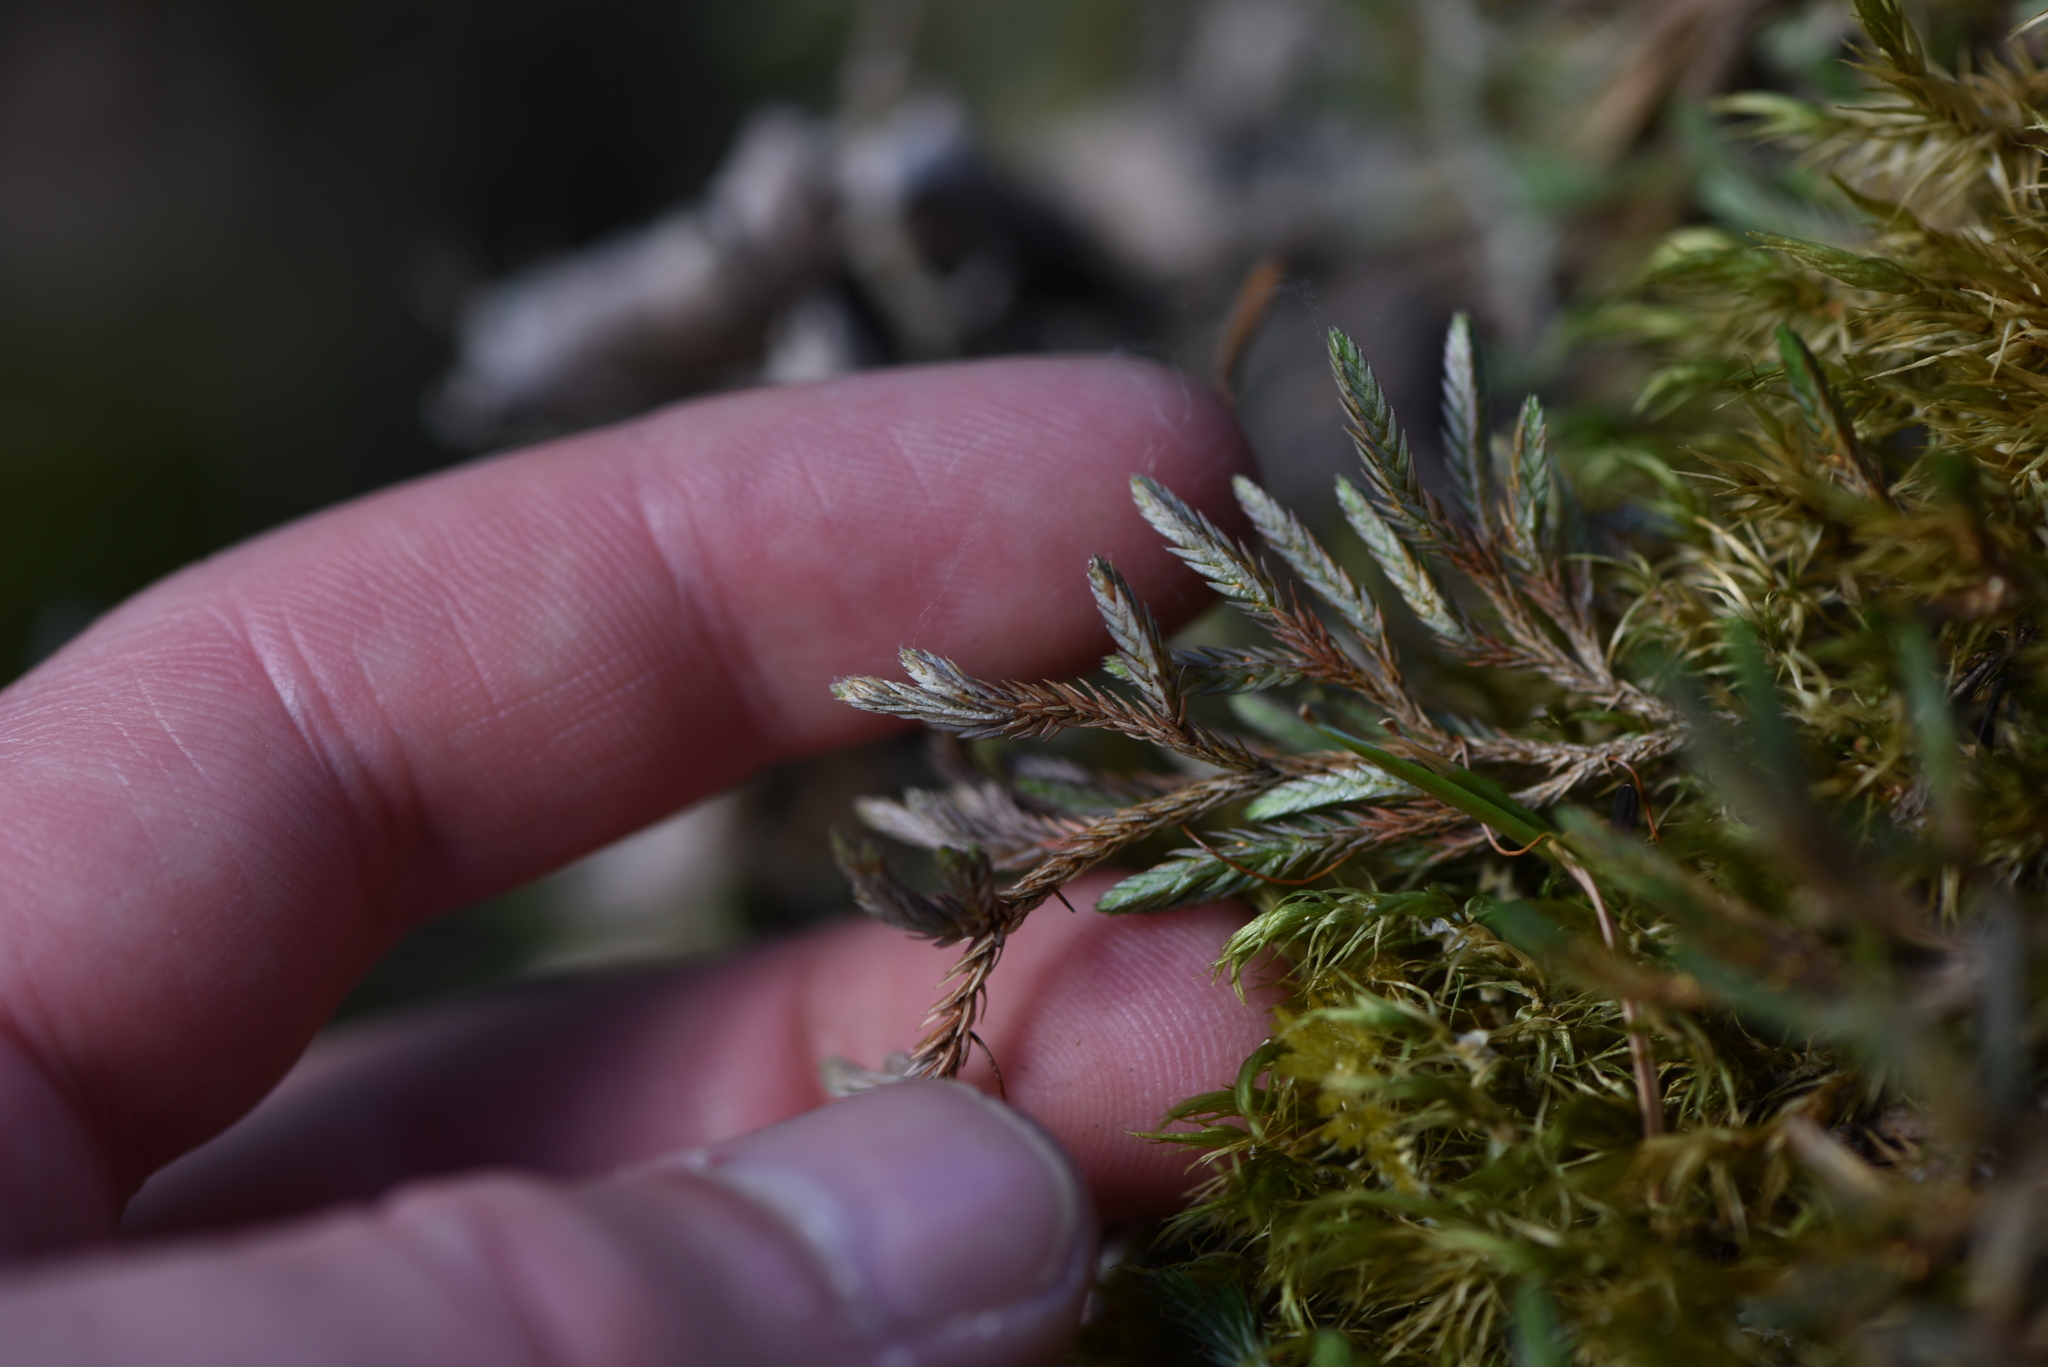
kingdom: Plantae
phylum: Tracheophyta
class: Lycopodiopsida
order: Selaginellales
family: Selaginellaceae
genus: Selaginella
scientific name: Selaginella wallacei
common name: Wallace's selaginella
